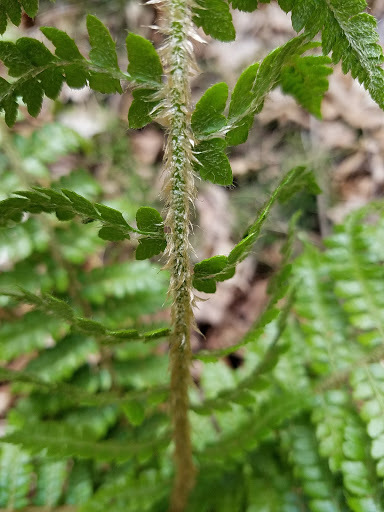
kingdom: Plantae
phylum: Tracheophyta
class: Polypodiopsida
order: Polypodiales
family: Dryopteridaceae
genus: Polystichum
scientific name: Polystichum braunii
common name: Braun's holly fern
